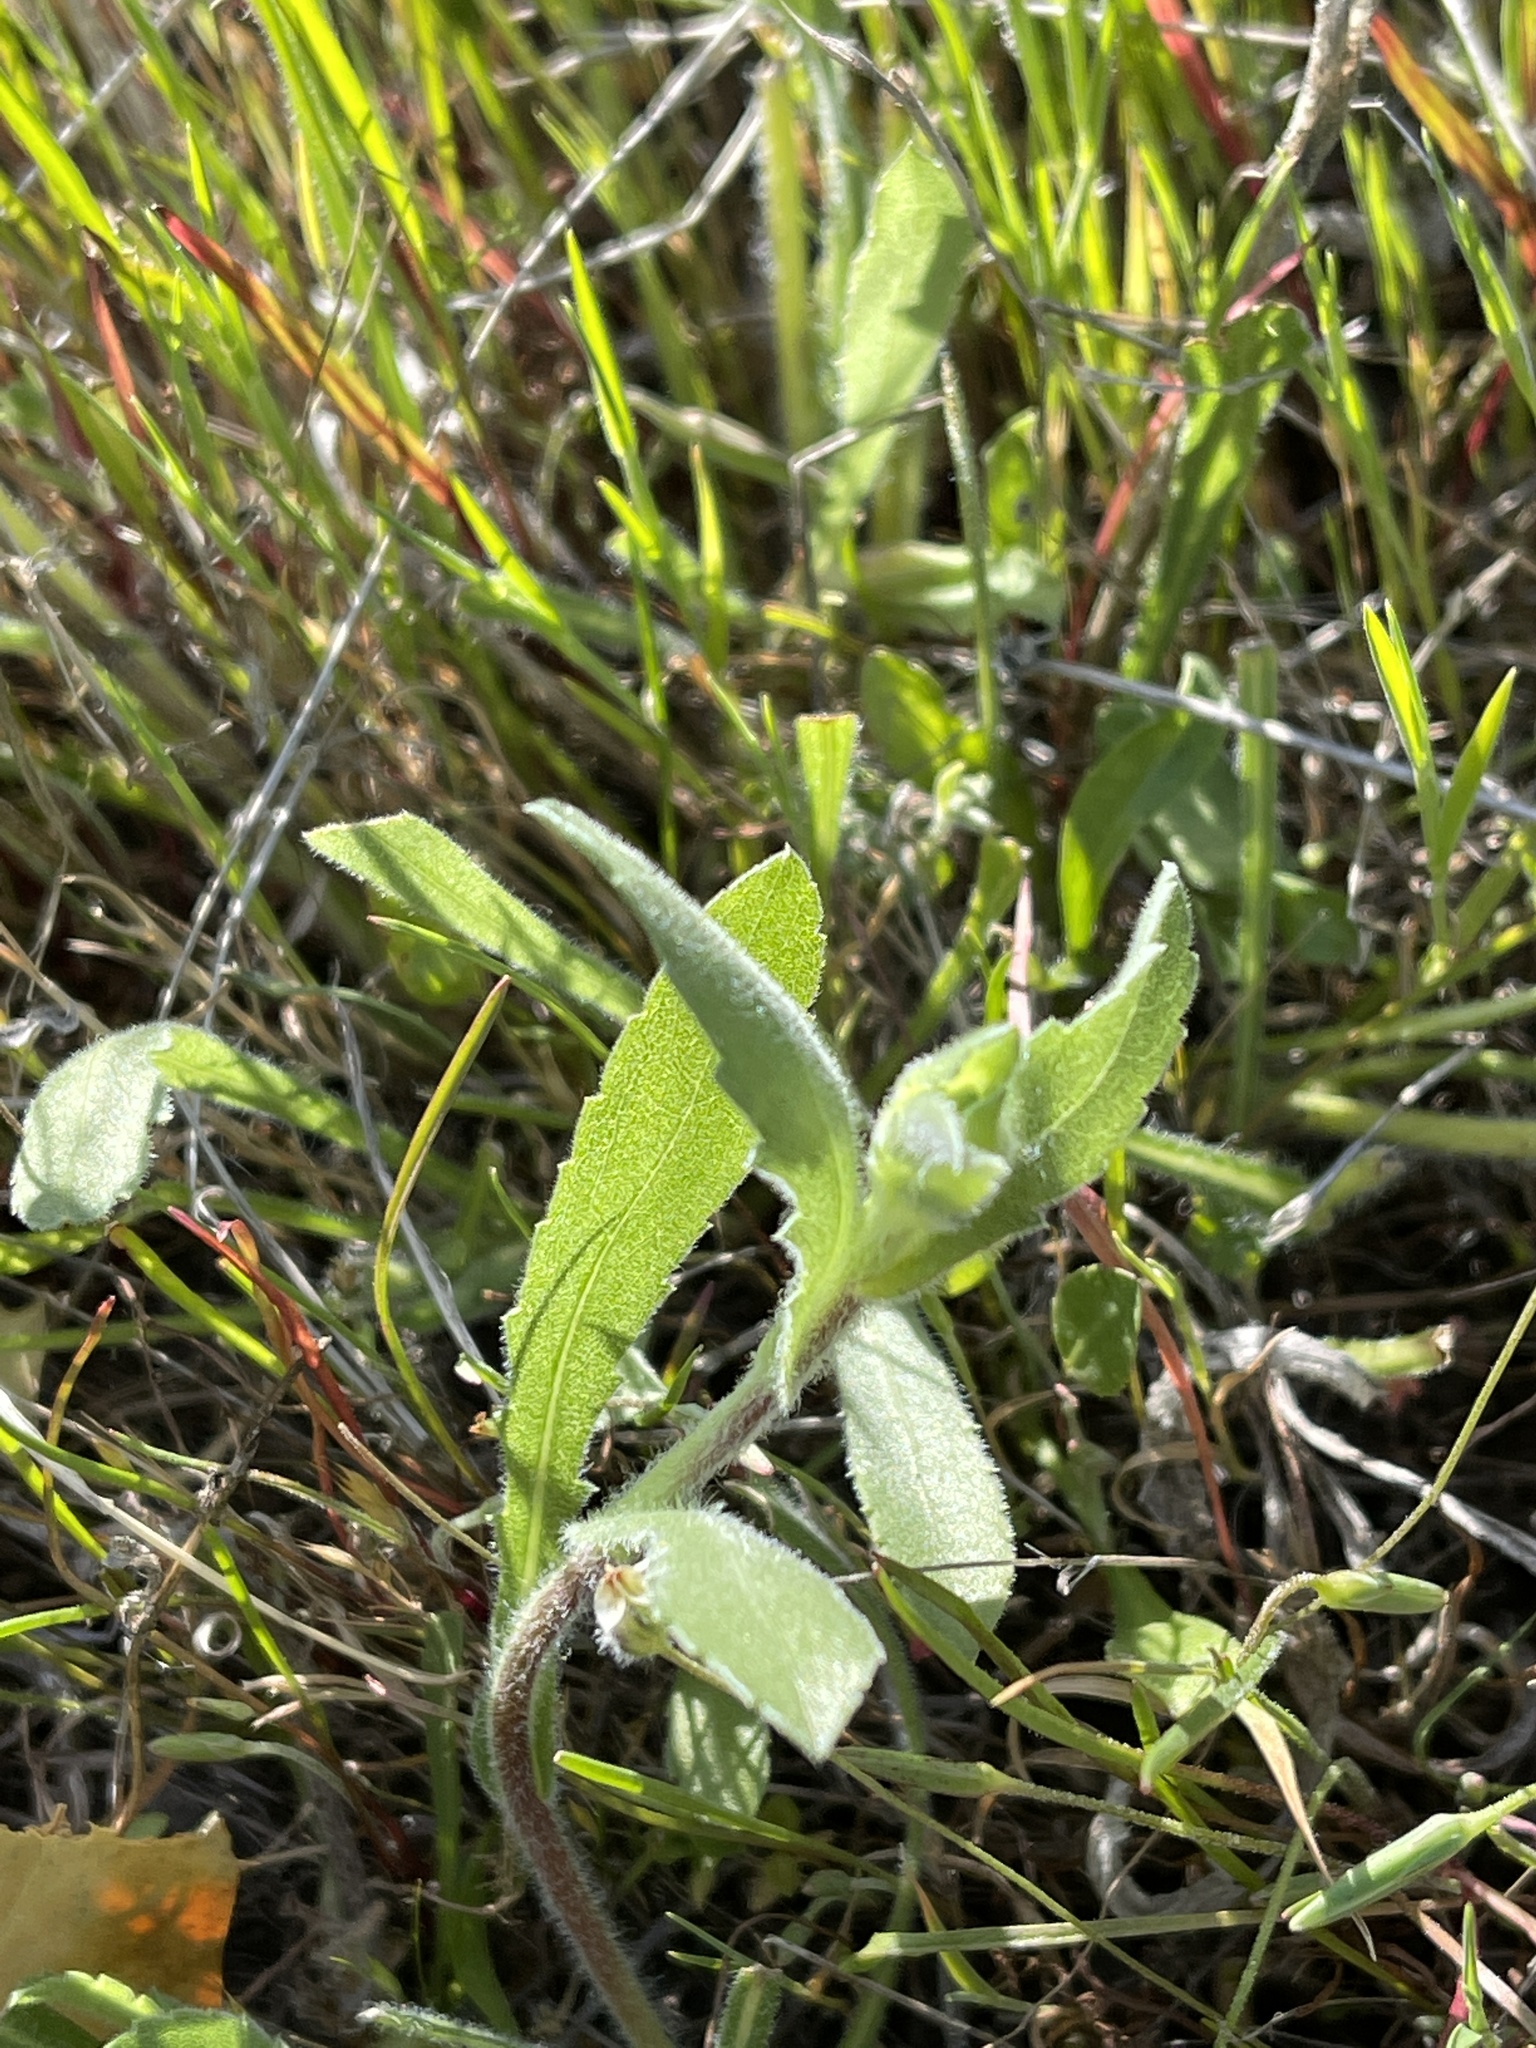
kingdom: Plantae
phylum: Tracheophyta
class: Magnoliopsida
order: Asterales
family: Asteraceae
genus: Grindelia
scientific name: Grindelia hirsutula
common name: Hairy gumweed
